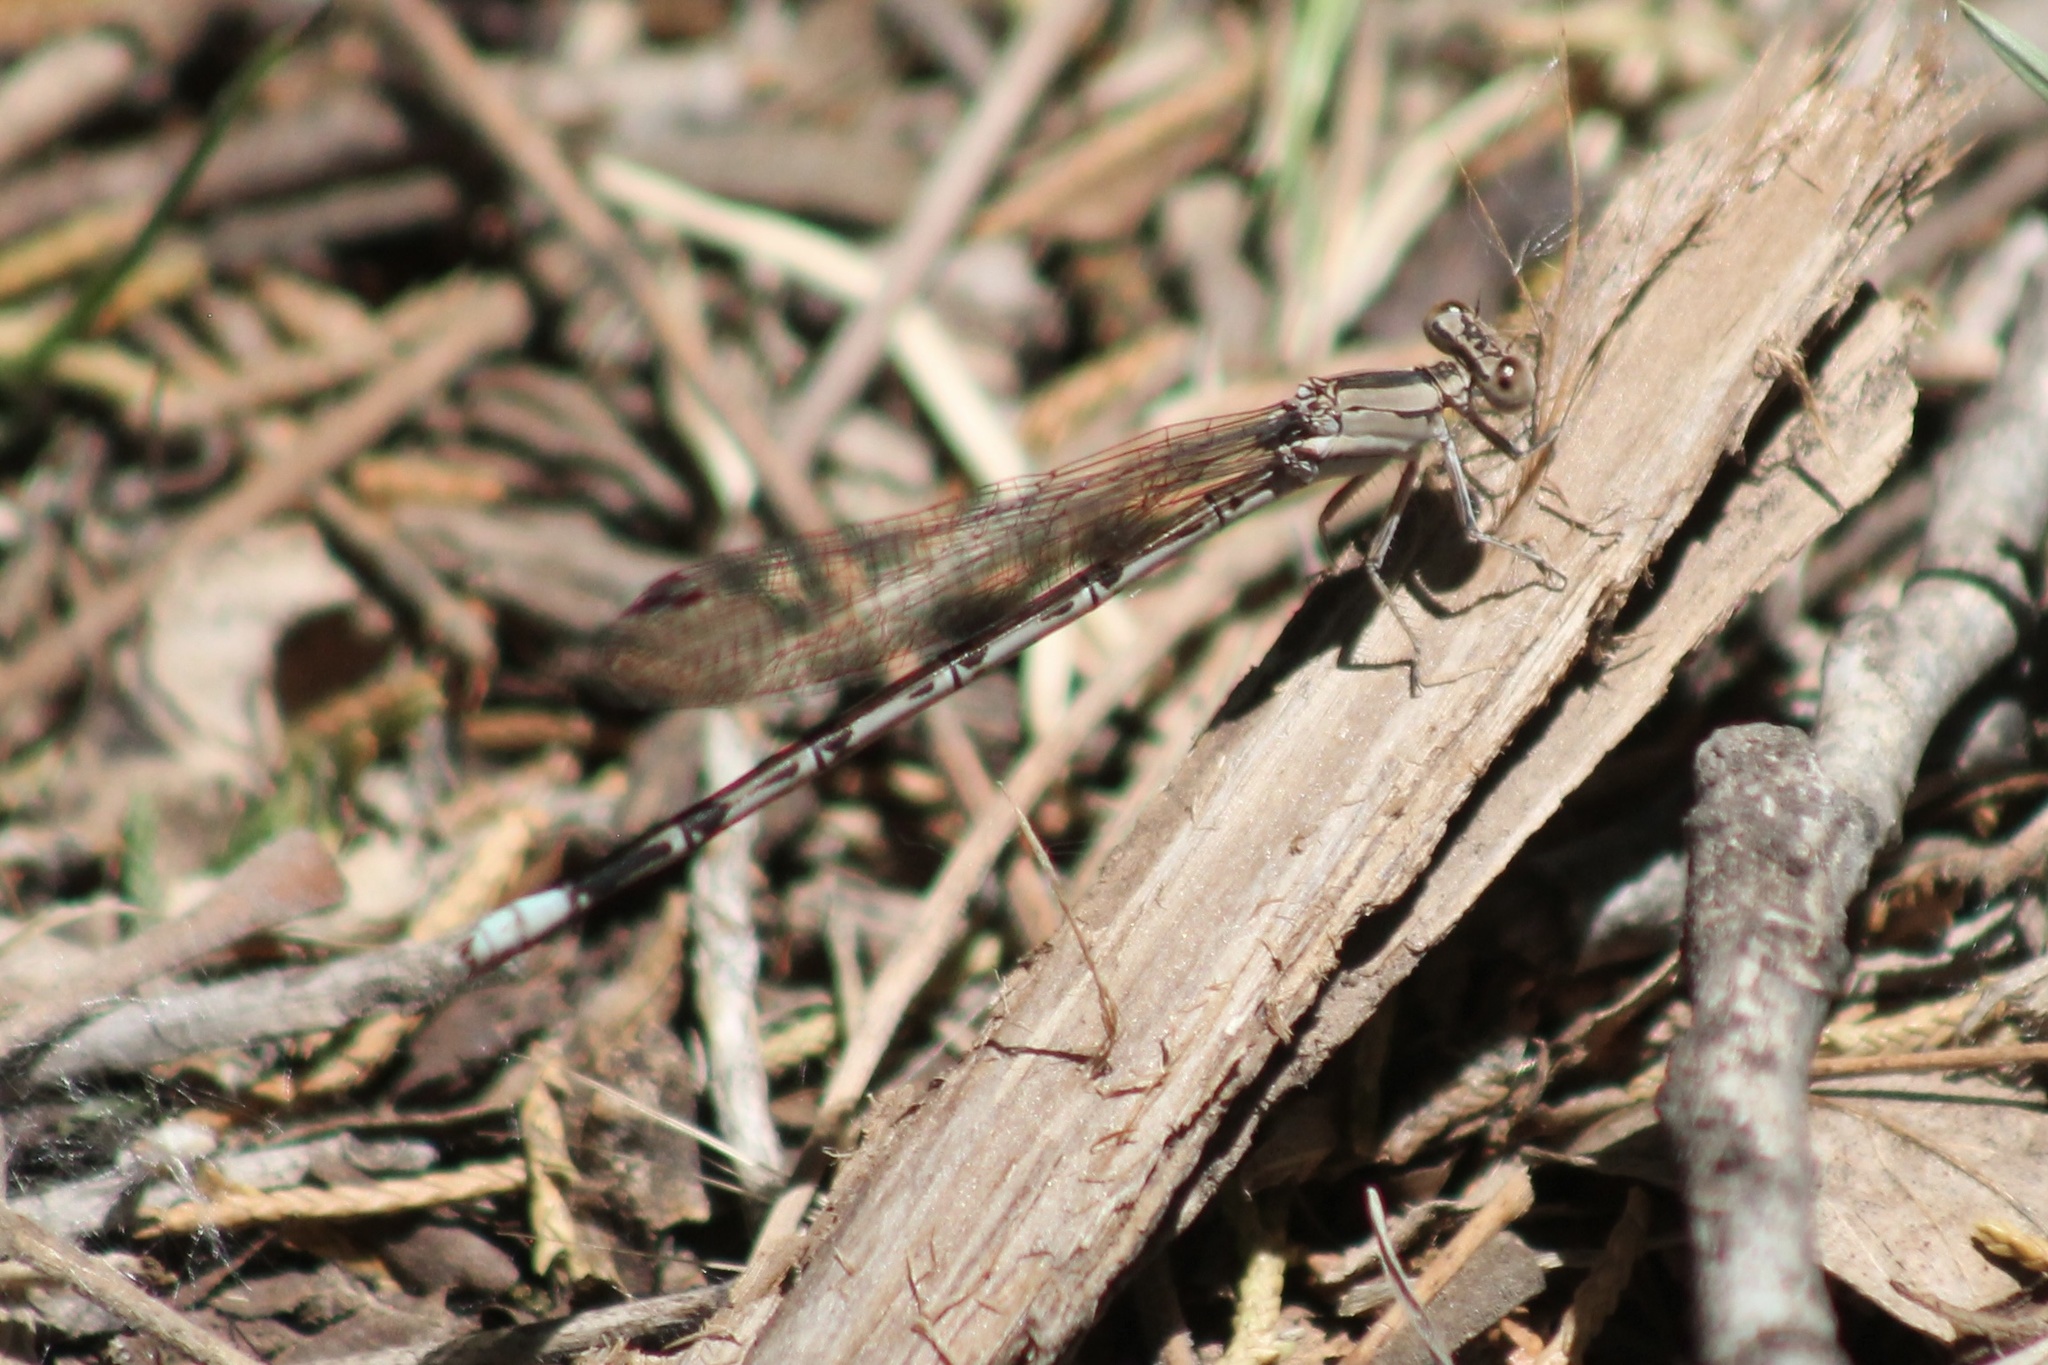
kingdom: Animalia
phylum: Arthropoda
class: Insecta
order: Odonata
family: Coenagrionidae
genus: Argia
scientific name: Argia funebris
